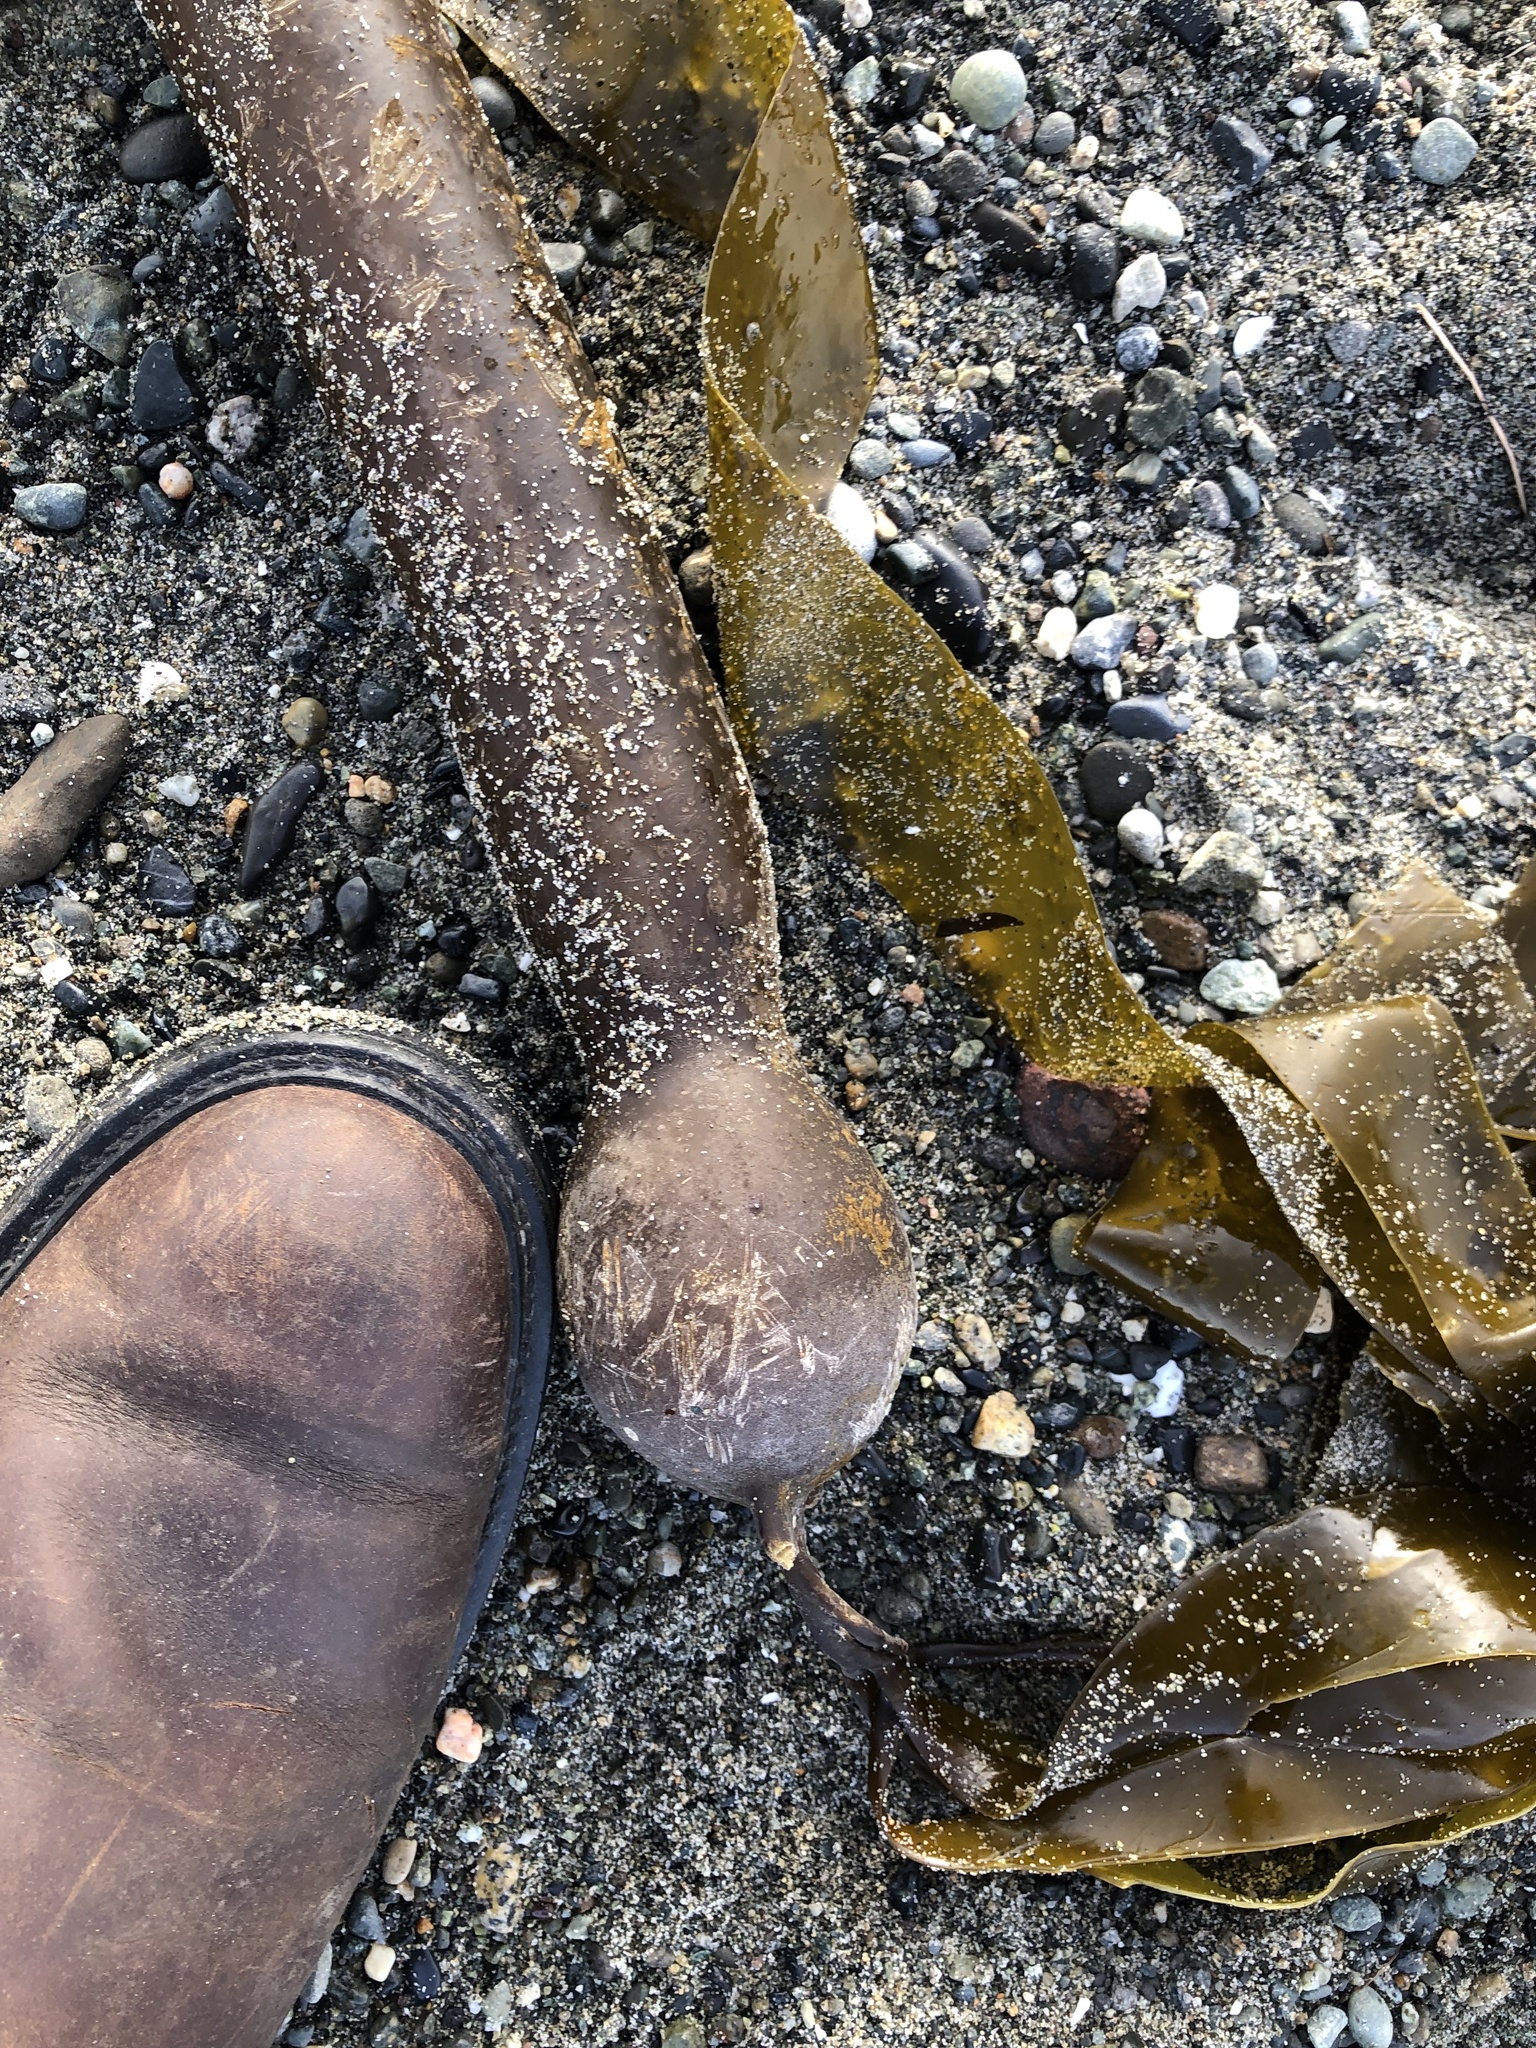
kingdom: Chromista
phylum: Ochrophyta
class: Phaeophyceae
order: Laminariales
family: Laminariaceae
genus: Nereocystis
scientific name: Nereocystis luetkeana
